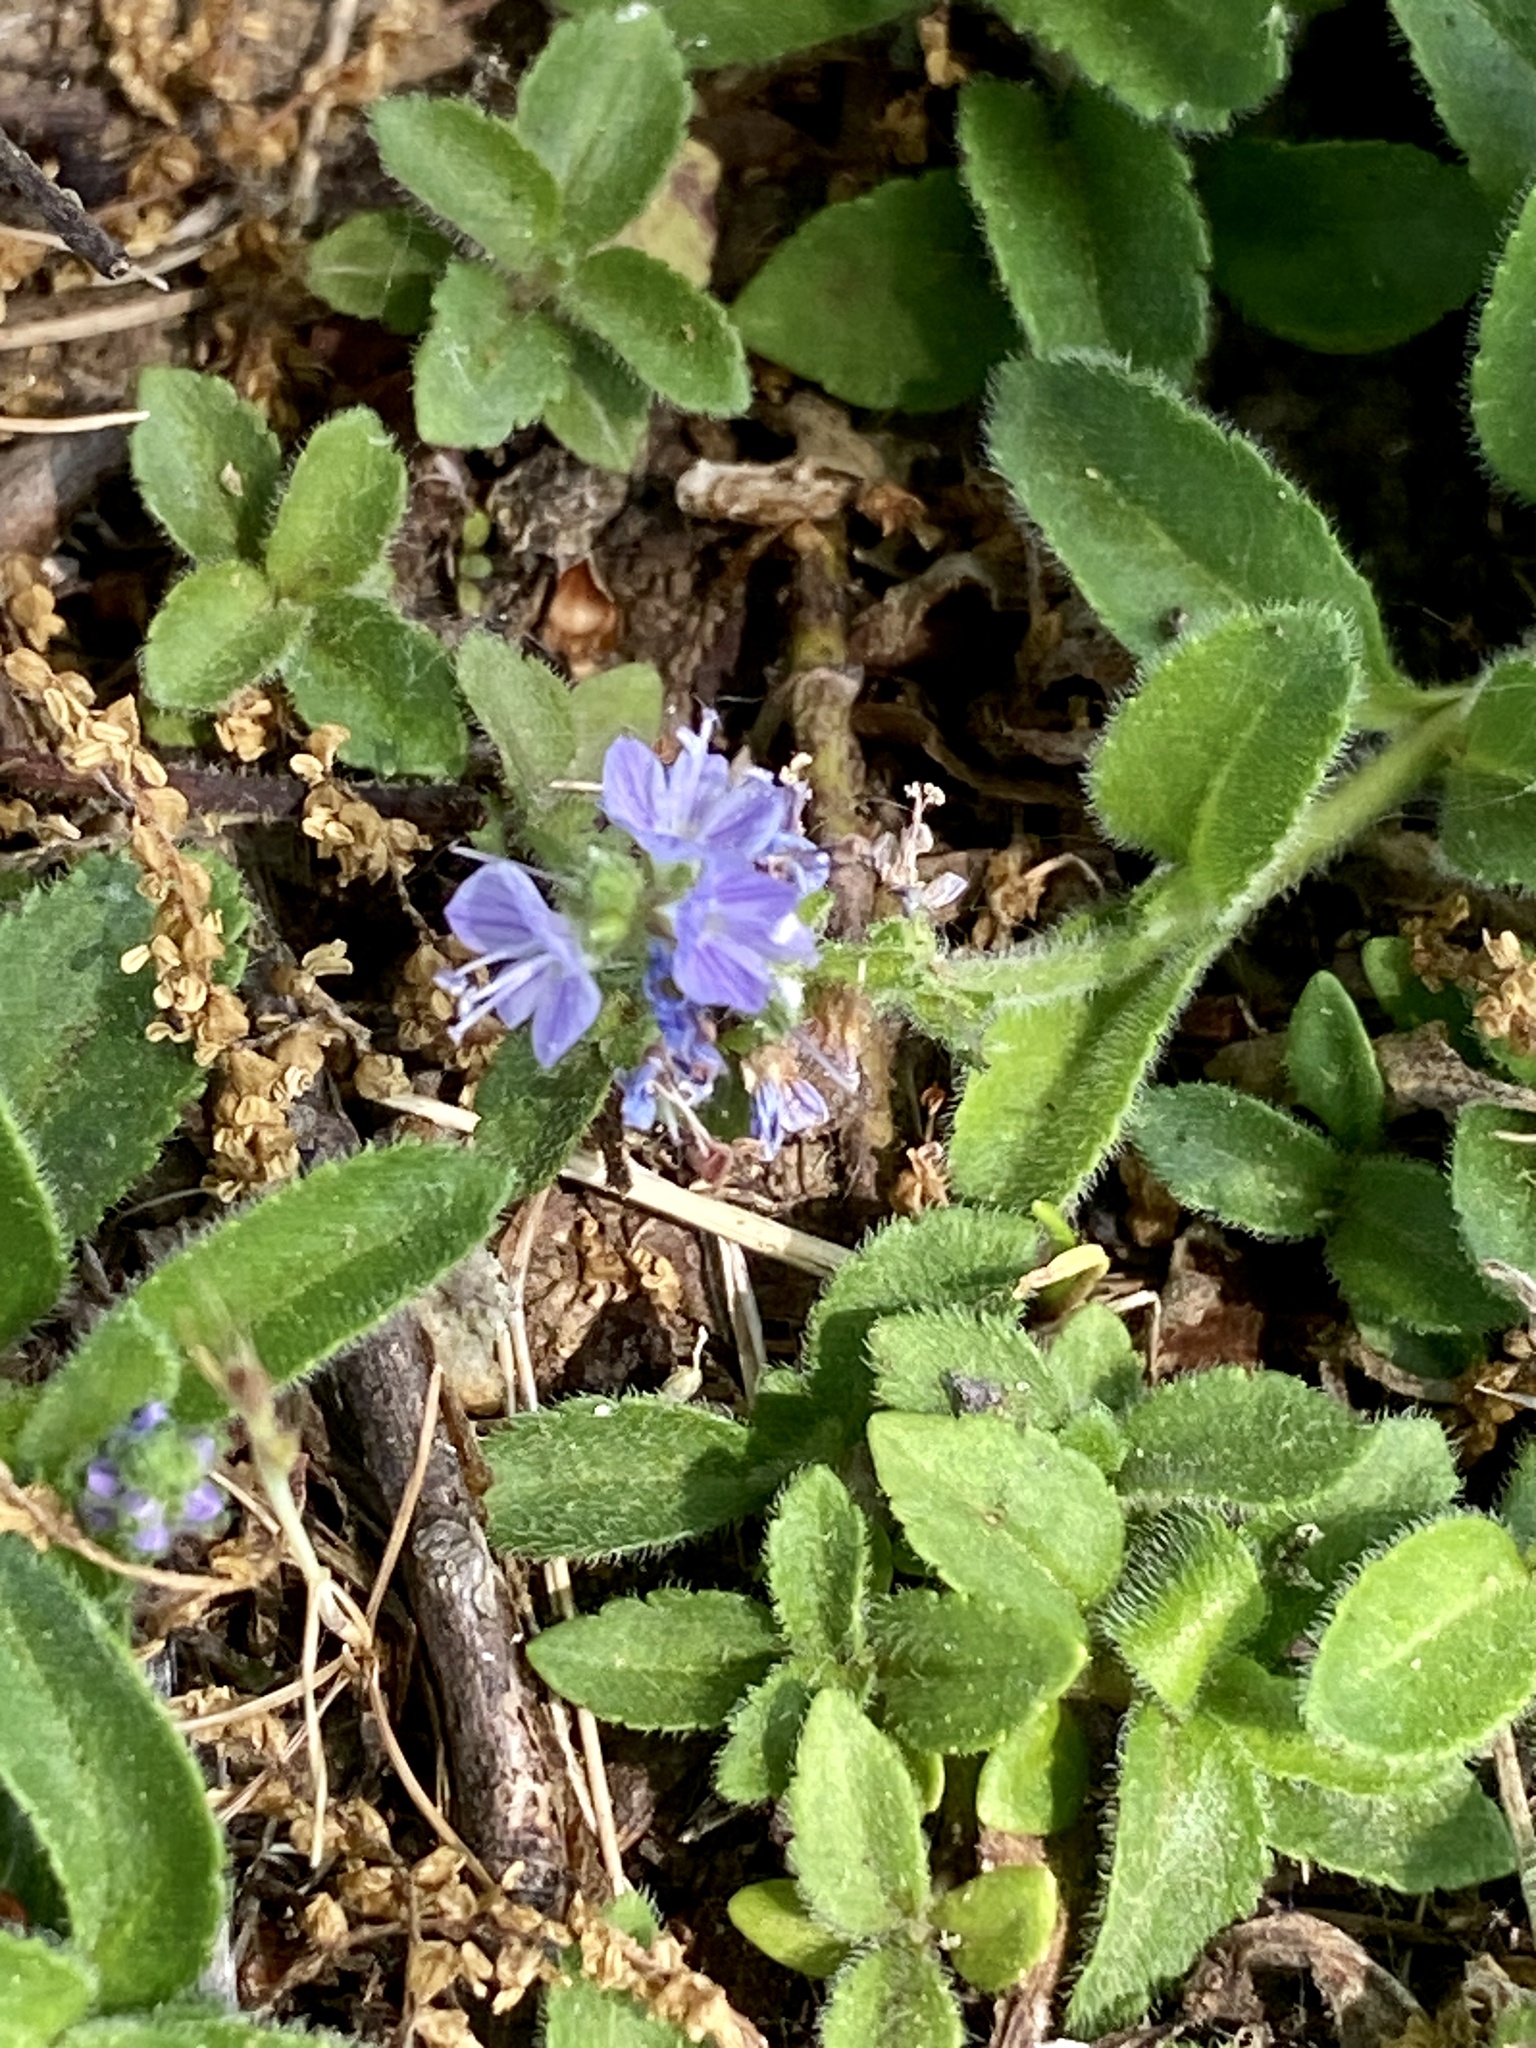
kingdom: Plantae
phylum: Tracheophyta
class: Magnoliopsida
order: Lamiales
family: Plantaginaceae
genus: Veronica
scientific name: Veronica officinalis
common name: Common speedwell
